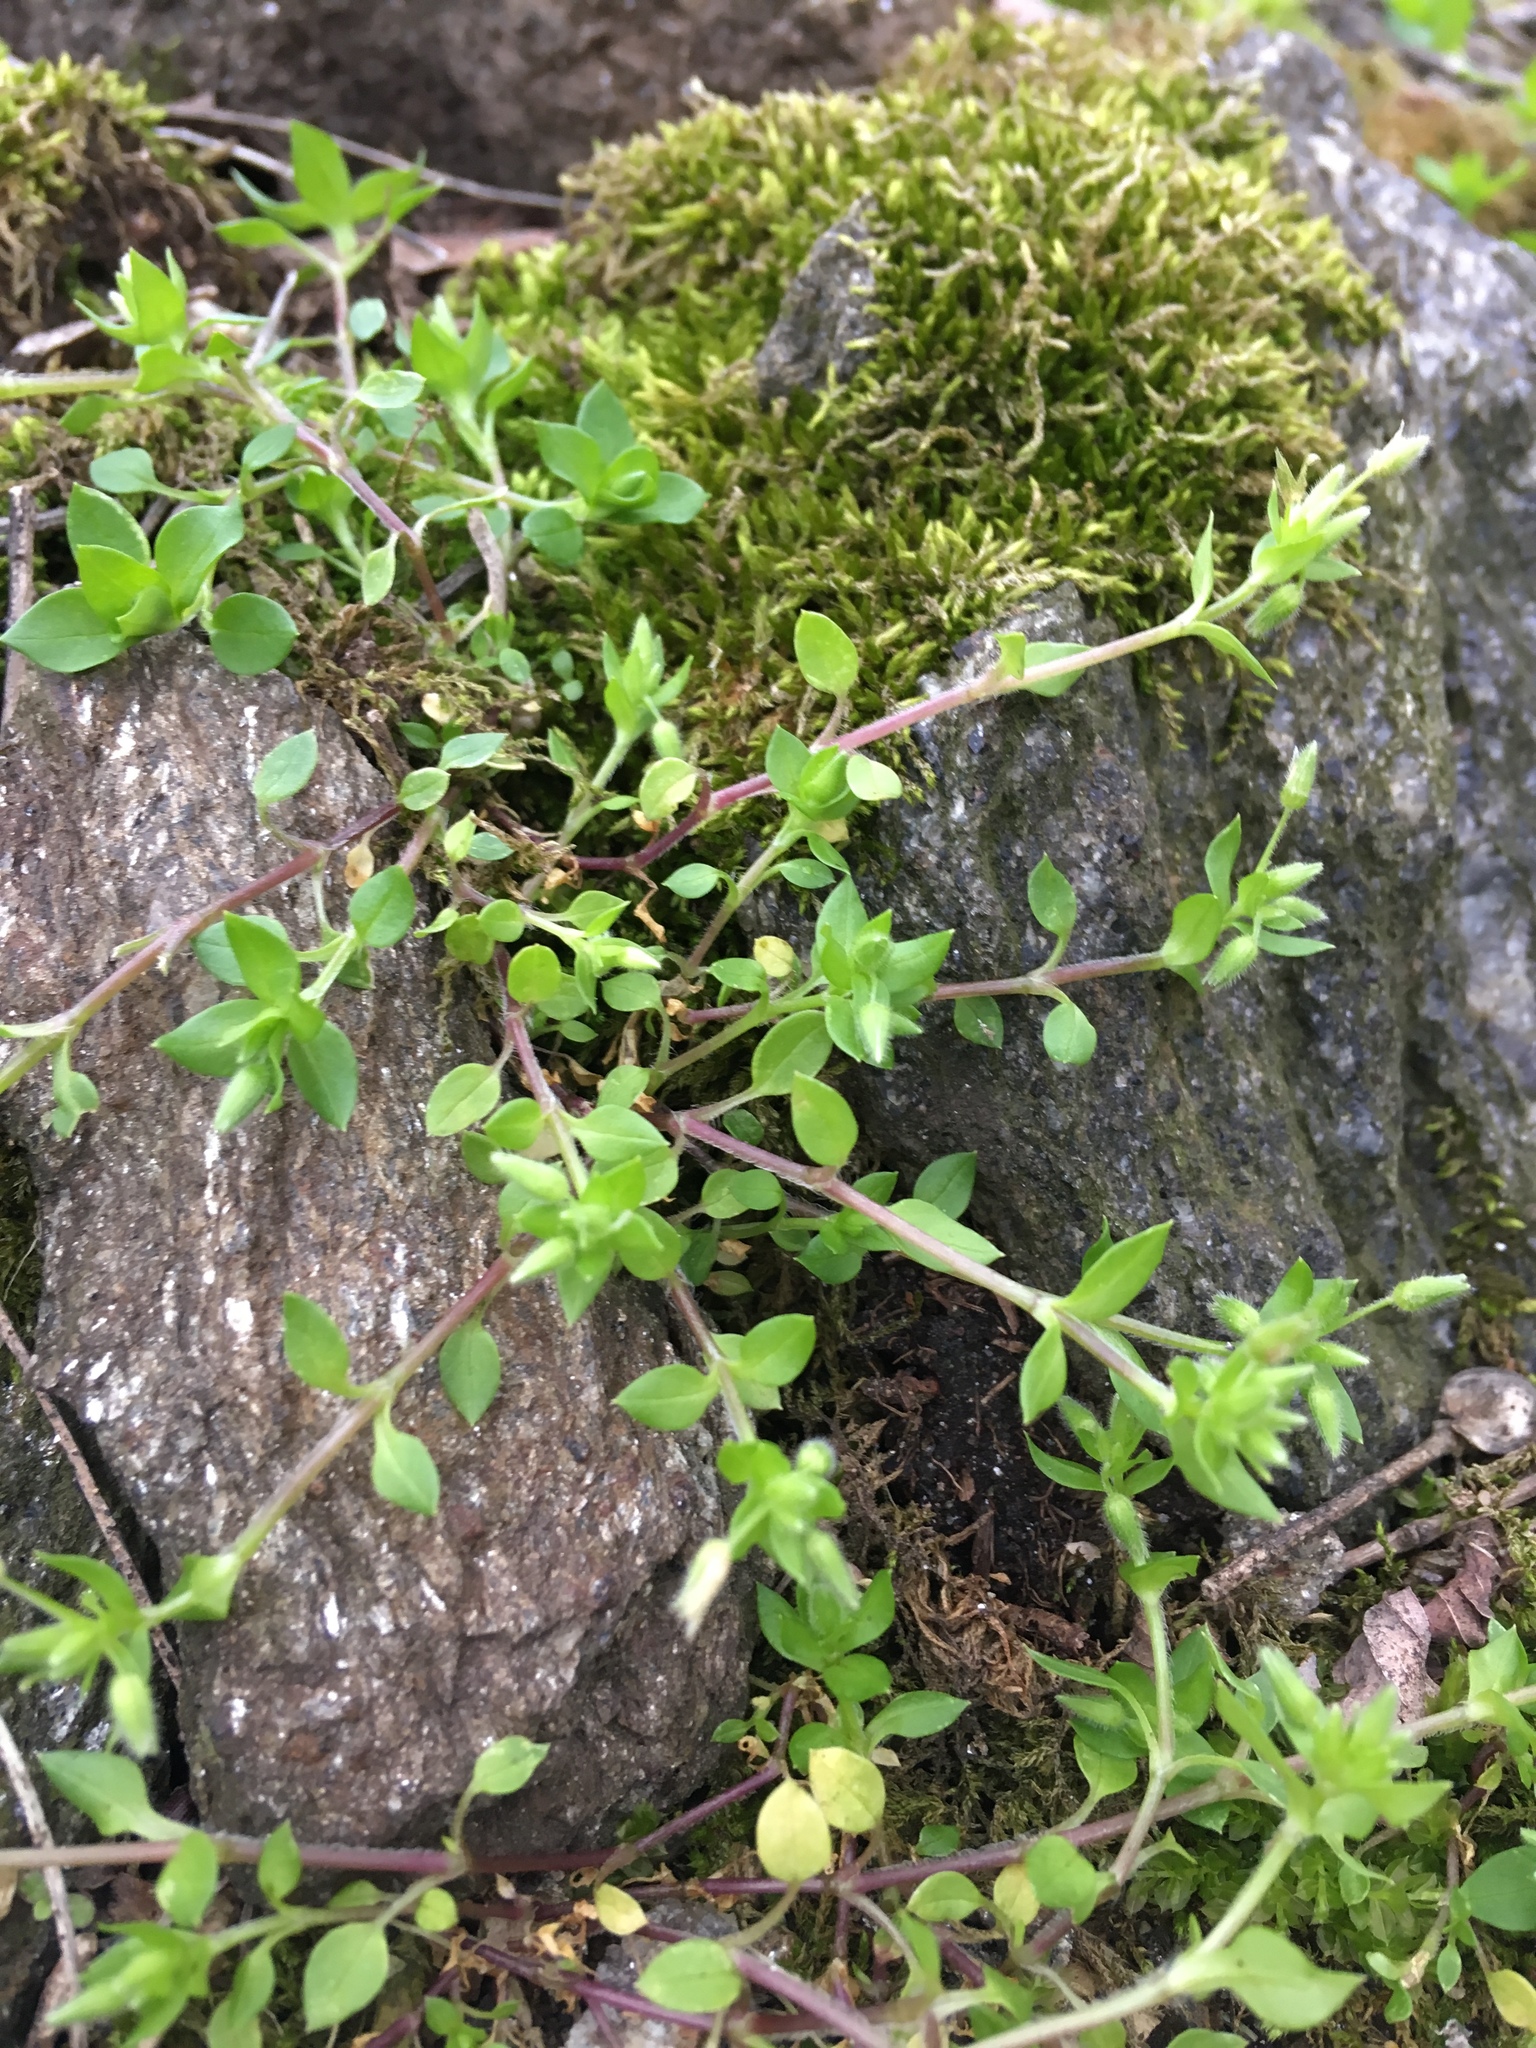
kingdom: Plantae
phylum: Tracheophyta
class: Magnoliopsida
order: Caryophyllales
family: Caryophyllaceae
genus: Stellaria
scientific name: Stellaria media
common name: Common chickweed
